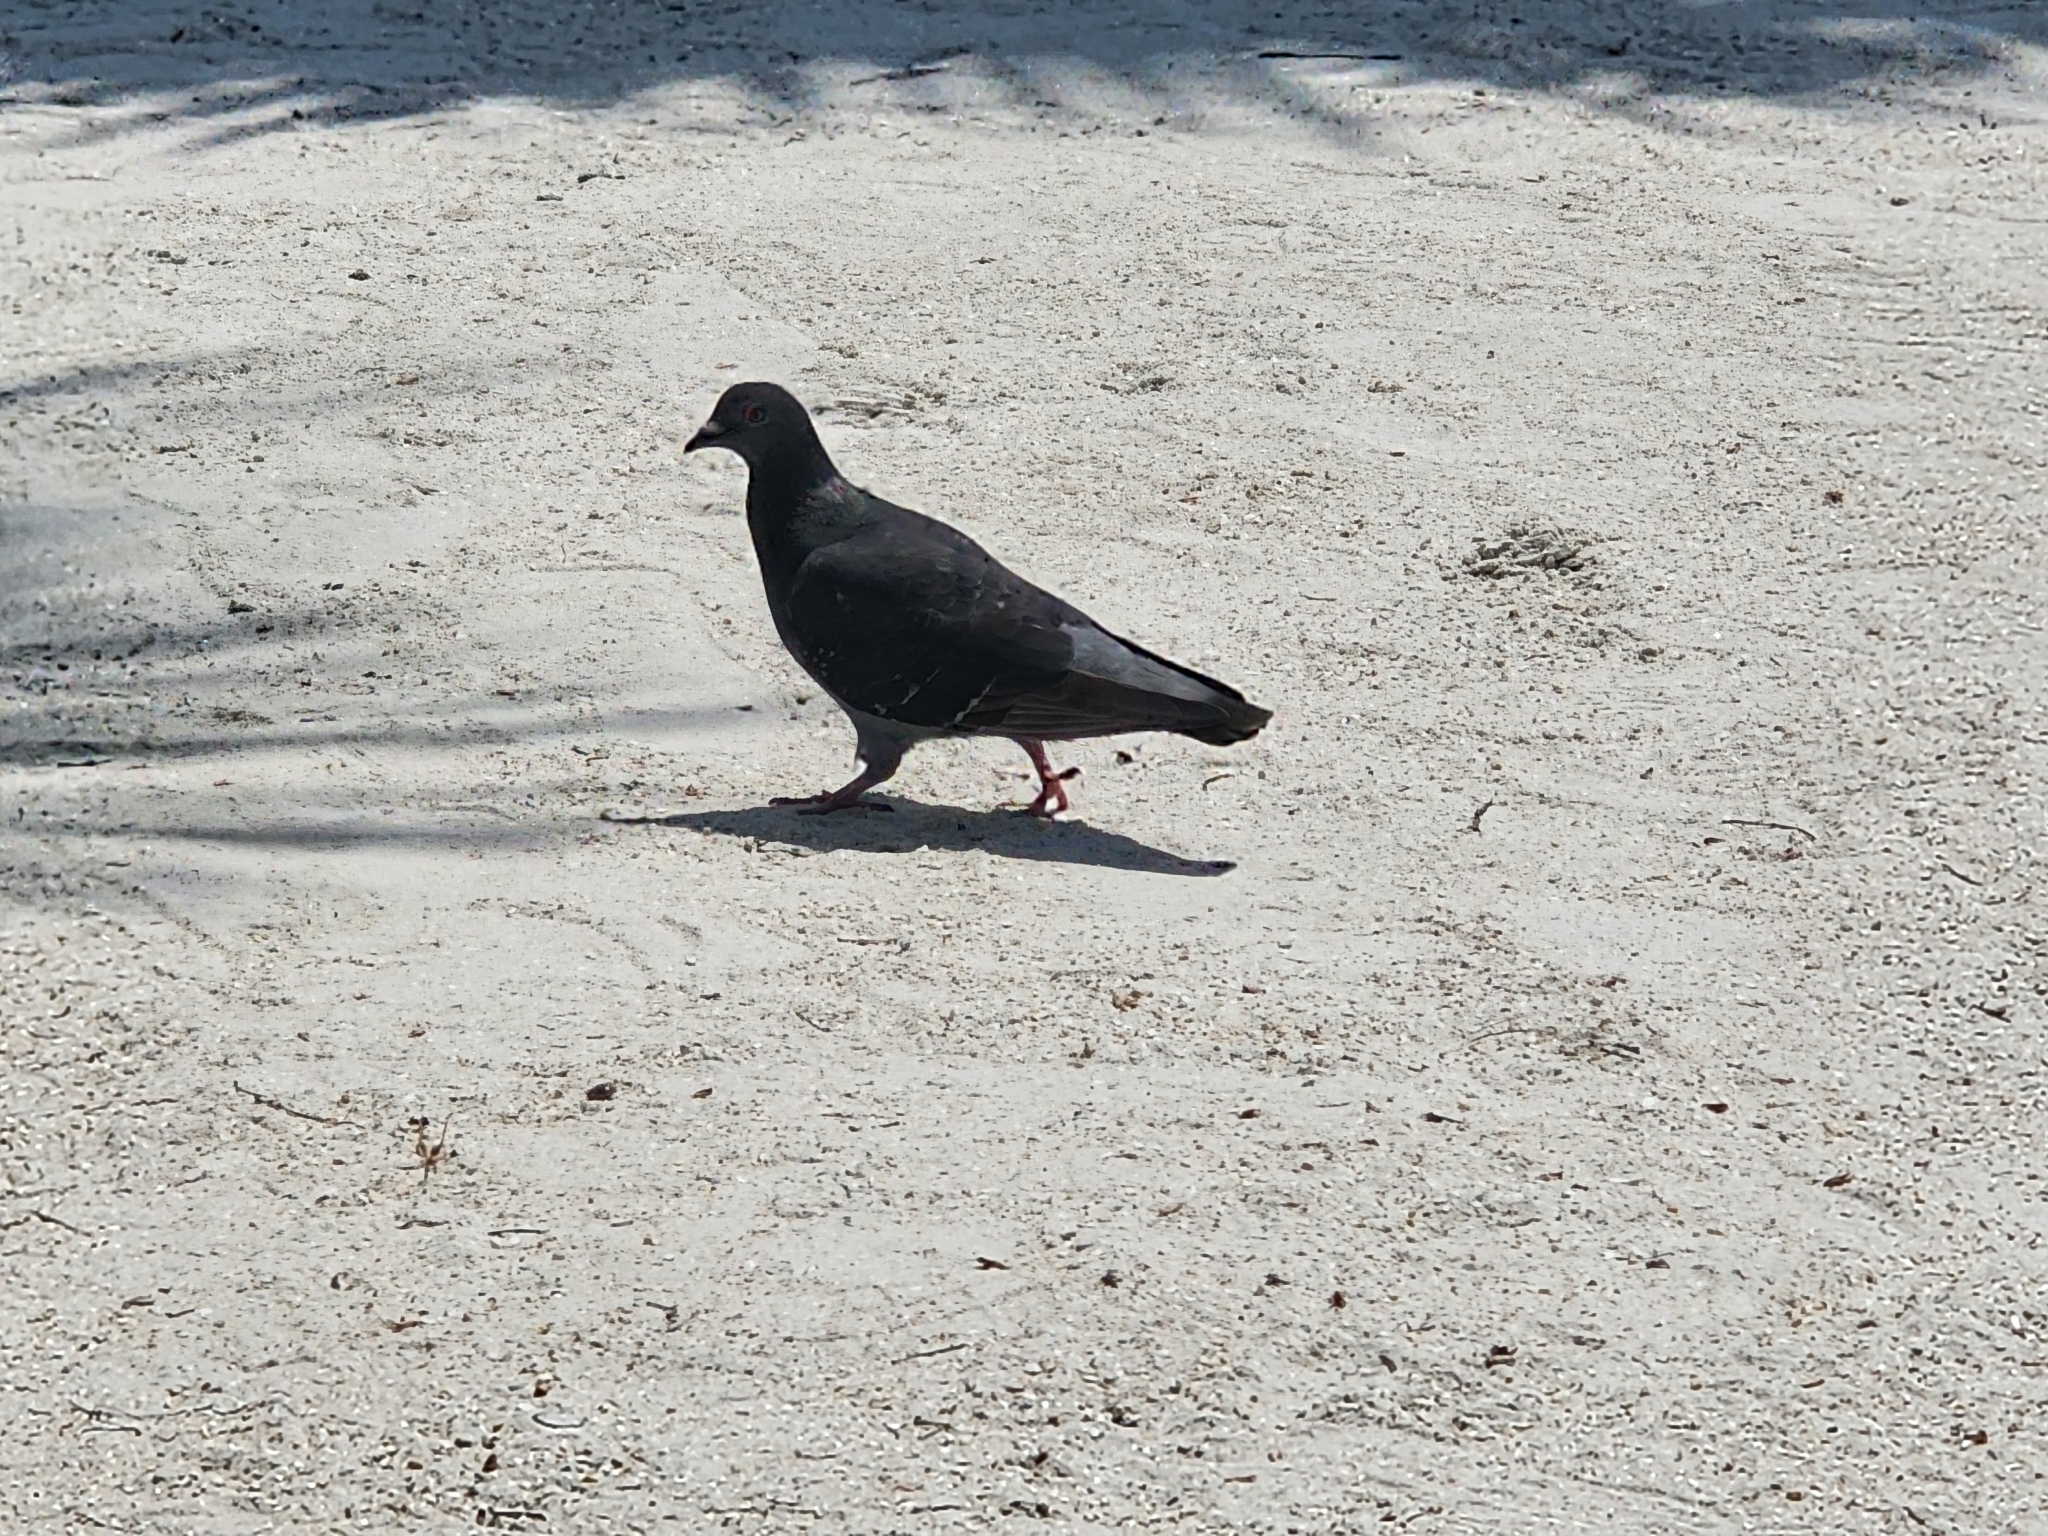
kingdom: Animalia
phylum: Chordata
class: Aves
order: Columbiformes
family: Columbidae
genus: Columba
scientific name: Columba livia
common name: Rock pigeon
